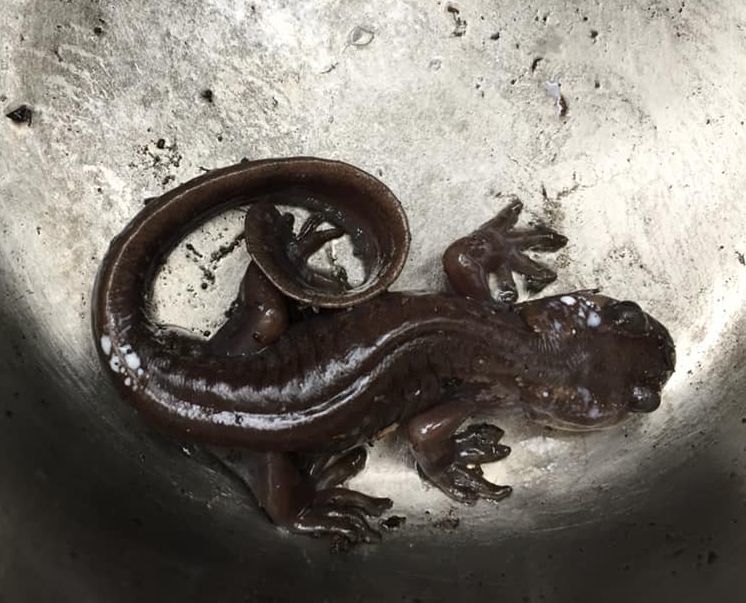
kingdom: Animalia
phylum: Chordata
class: Amphibia
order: Caudata
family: Ambystomatidae
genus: Ambystoma
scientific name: Ambystoma gracile
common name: Northwestern salamander
